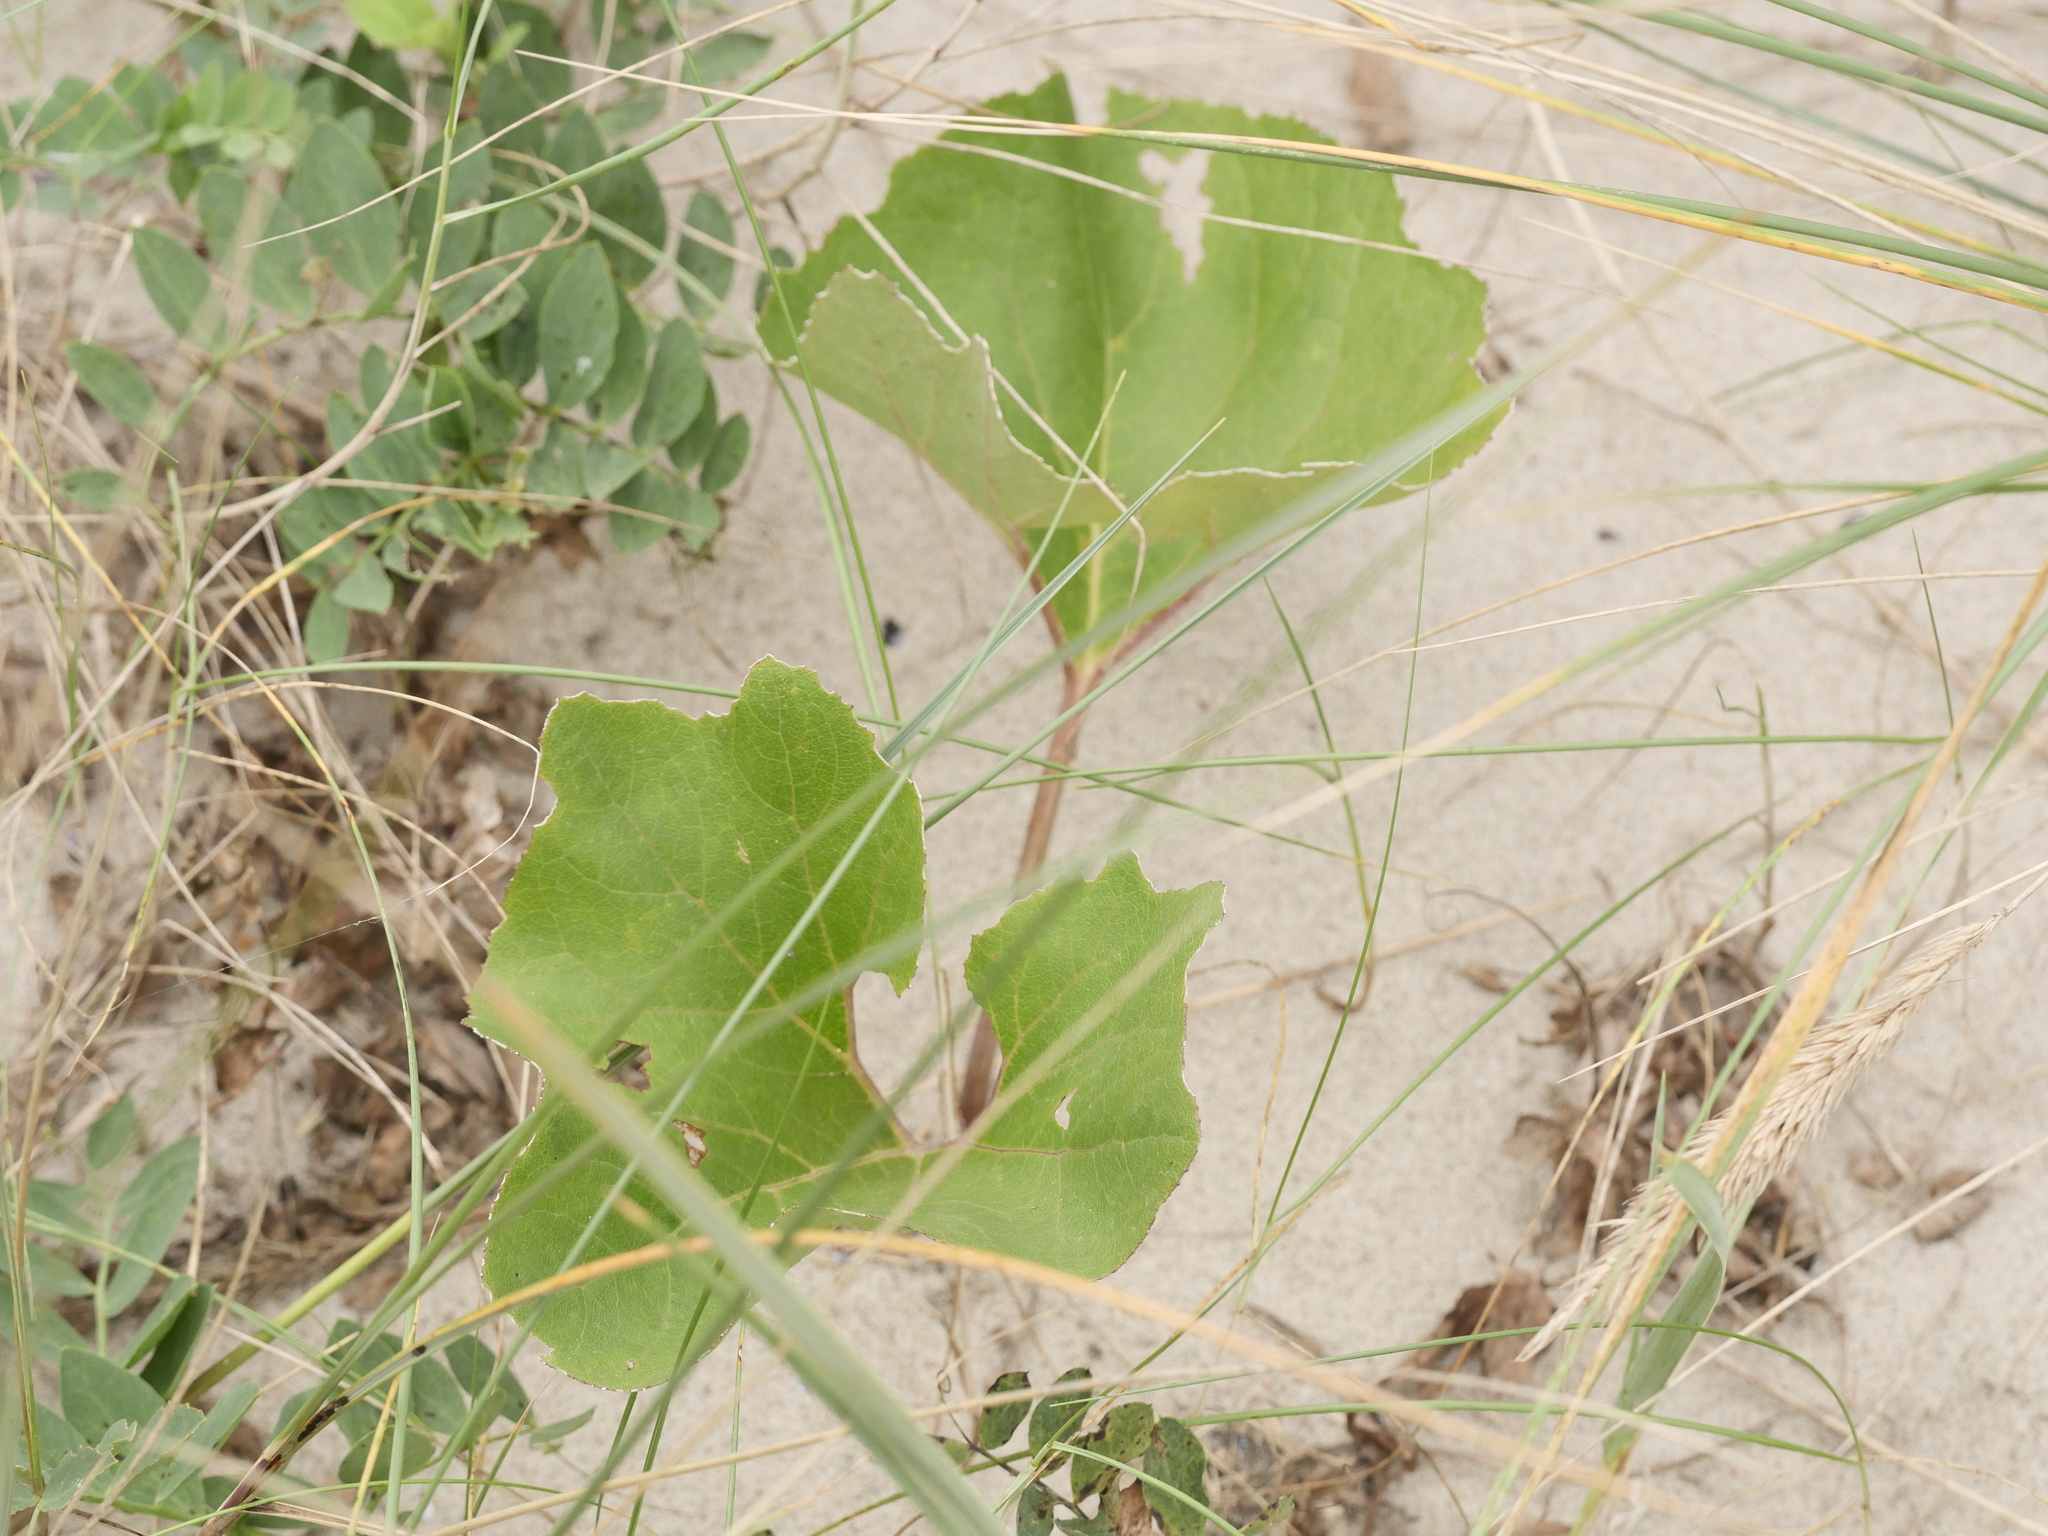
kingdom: Plantae
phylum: Tracheophyta
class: Magnoliopsida
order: Asterales
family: Asteraceae
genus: Petasites
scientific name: Petasites spurius
